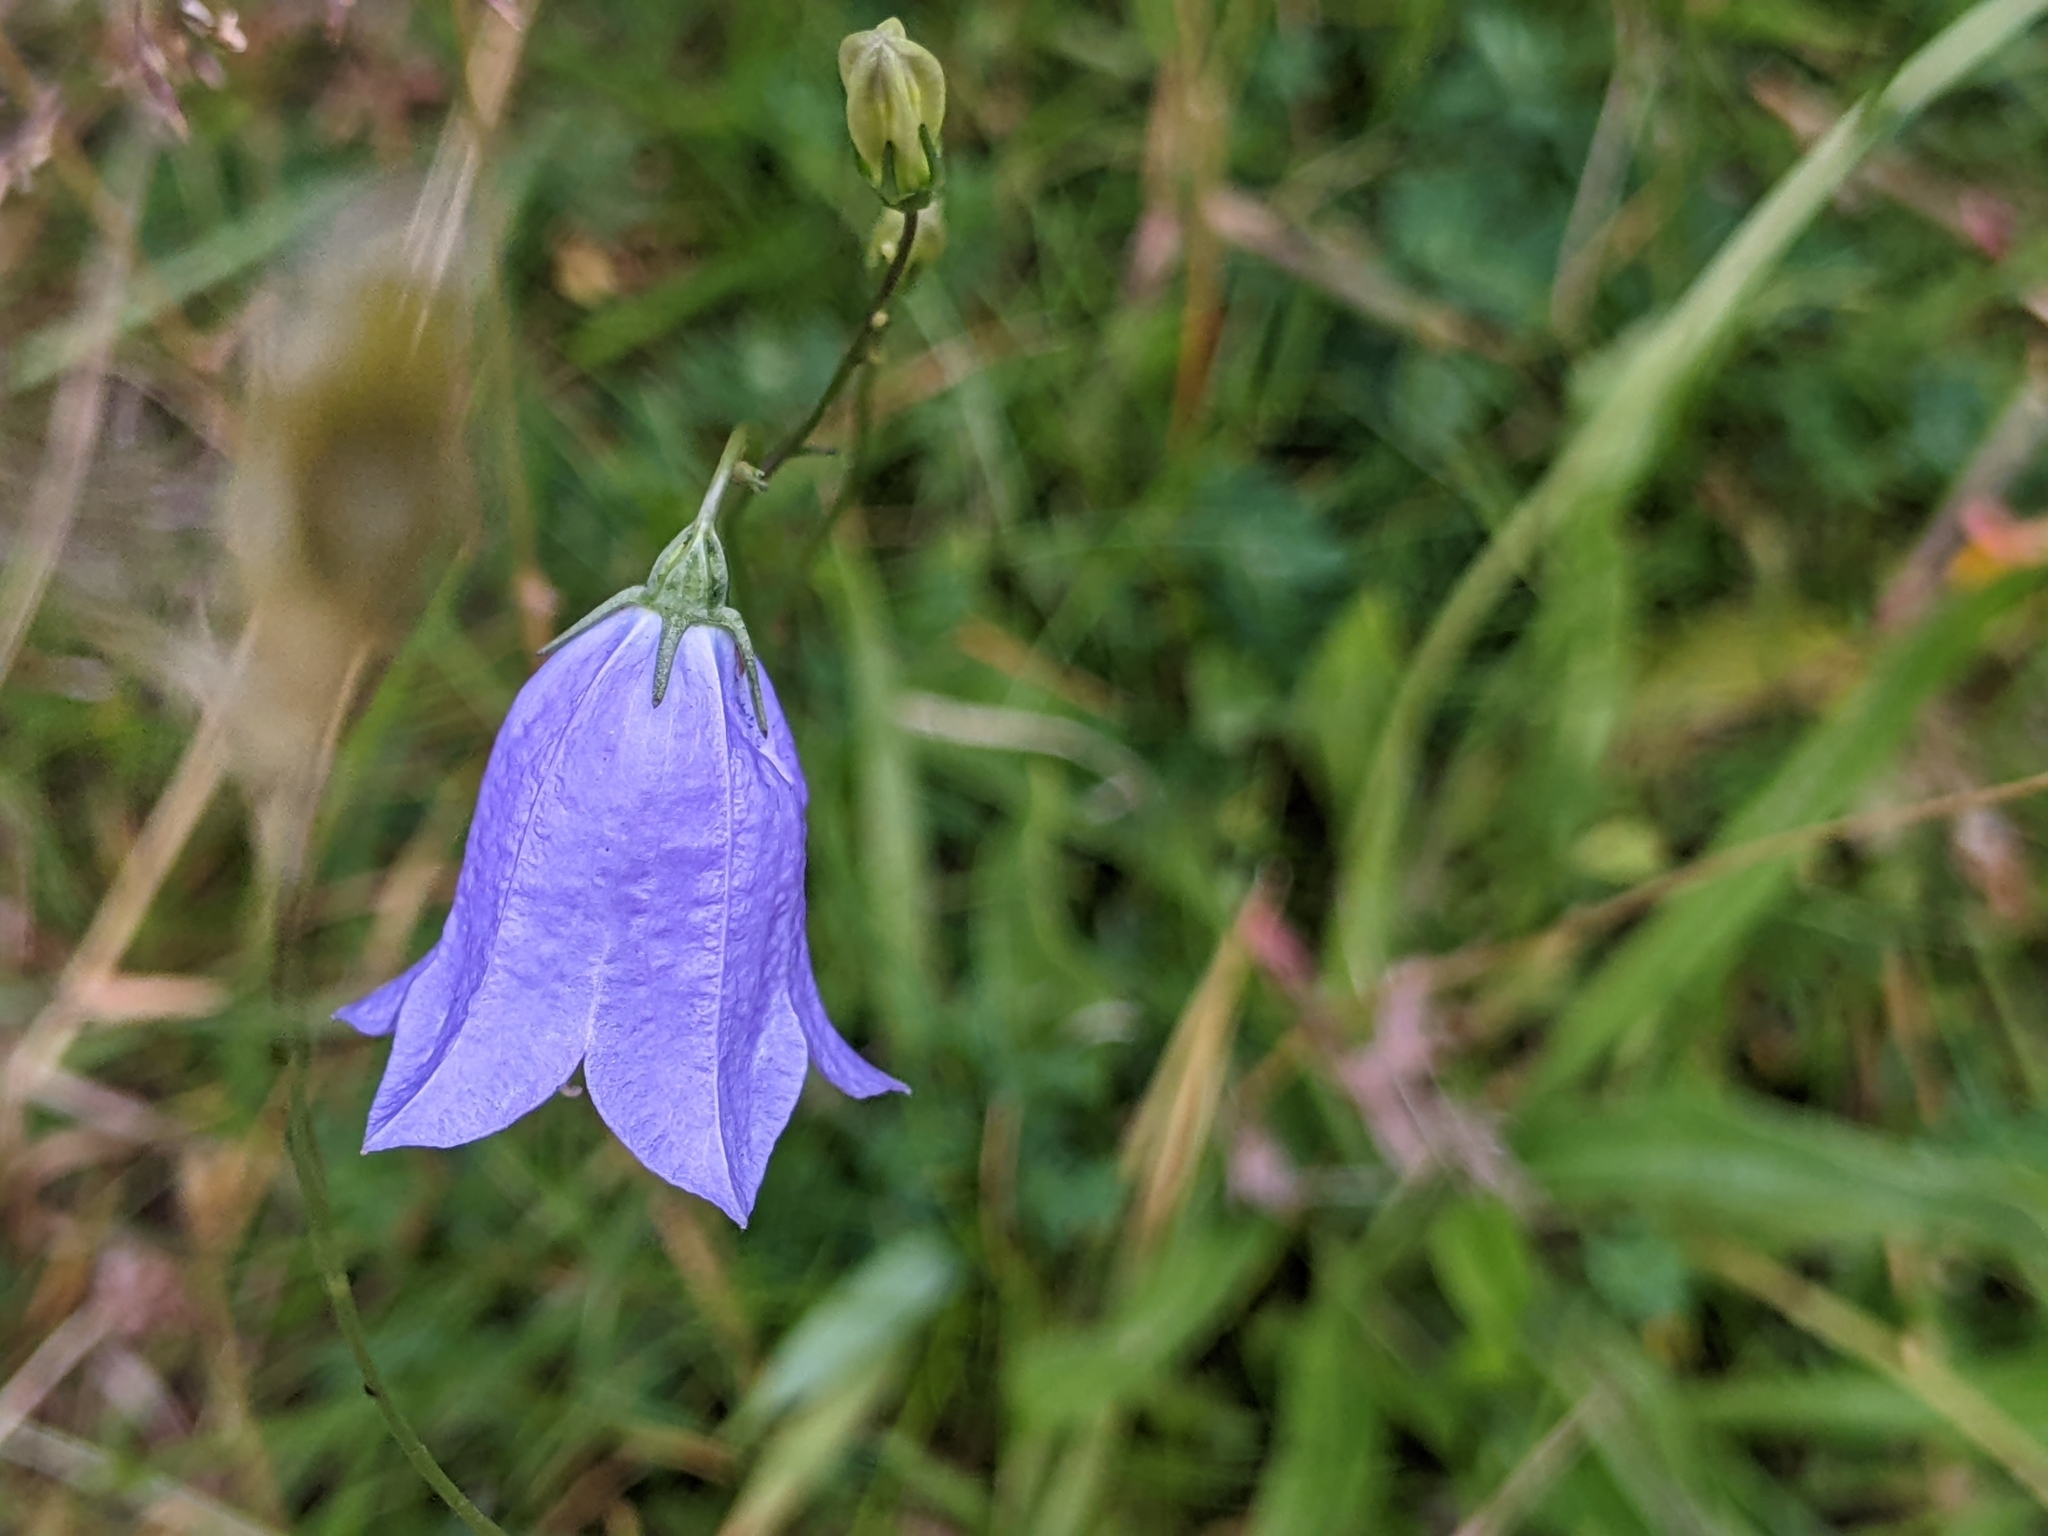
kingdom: Plantae
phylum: Tracheophyta
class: Magnoliopsida
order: Asterales
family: Campanulaceae
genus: Campanula
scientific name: Campanula rotundifolia
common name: Harebell
